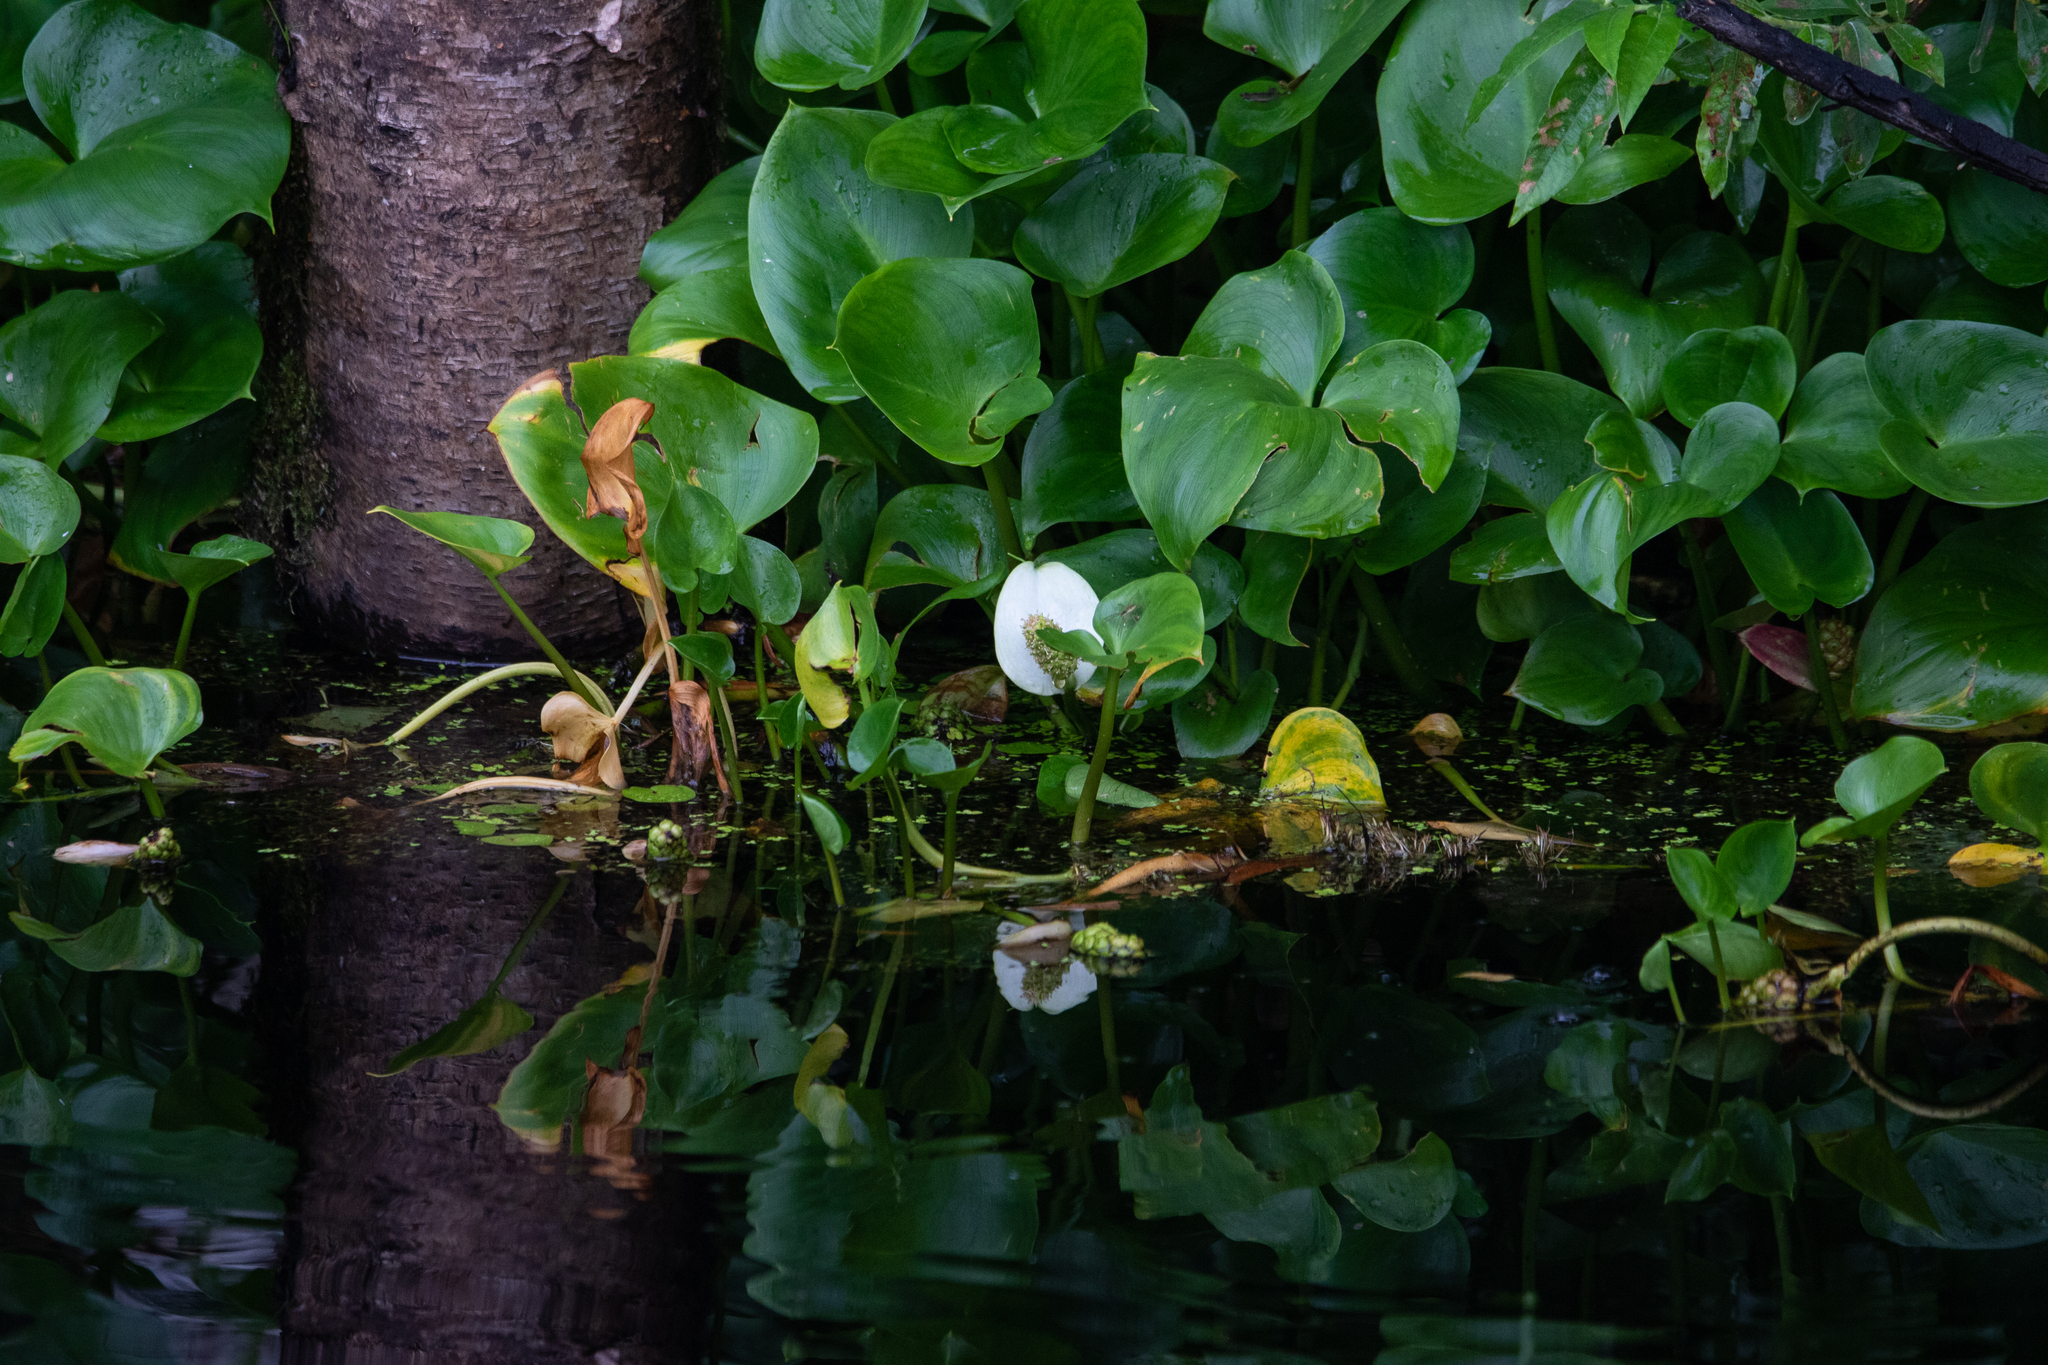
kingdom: Plantae
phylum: Tracheophyta
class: Liliopsida
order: Alismatales
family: Araceae
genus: Calla
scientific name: Calla palustris
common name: Bog arum
